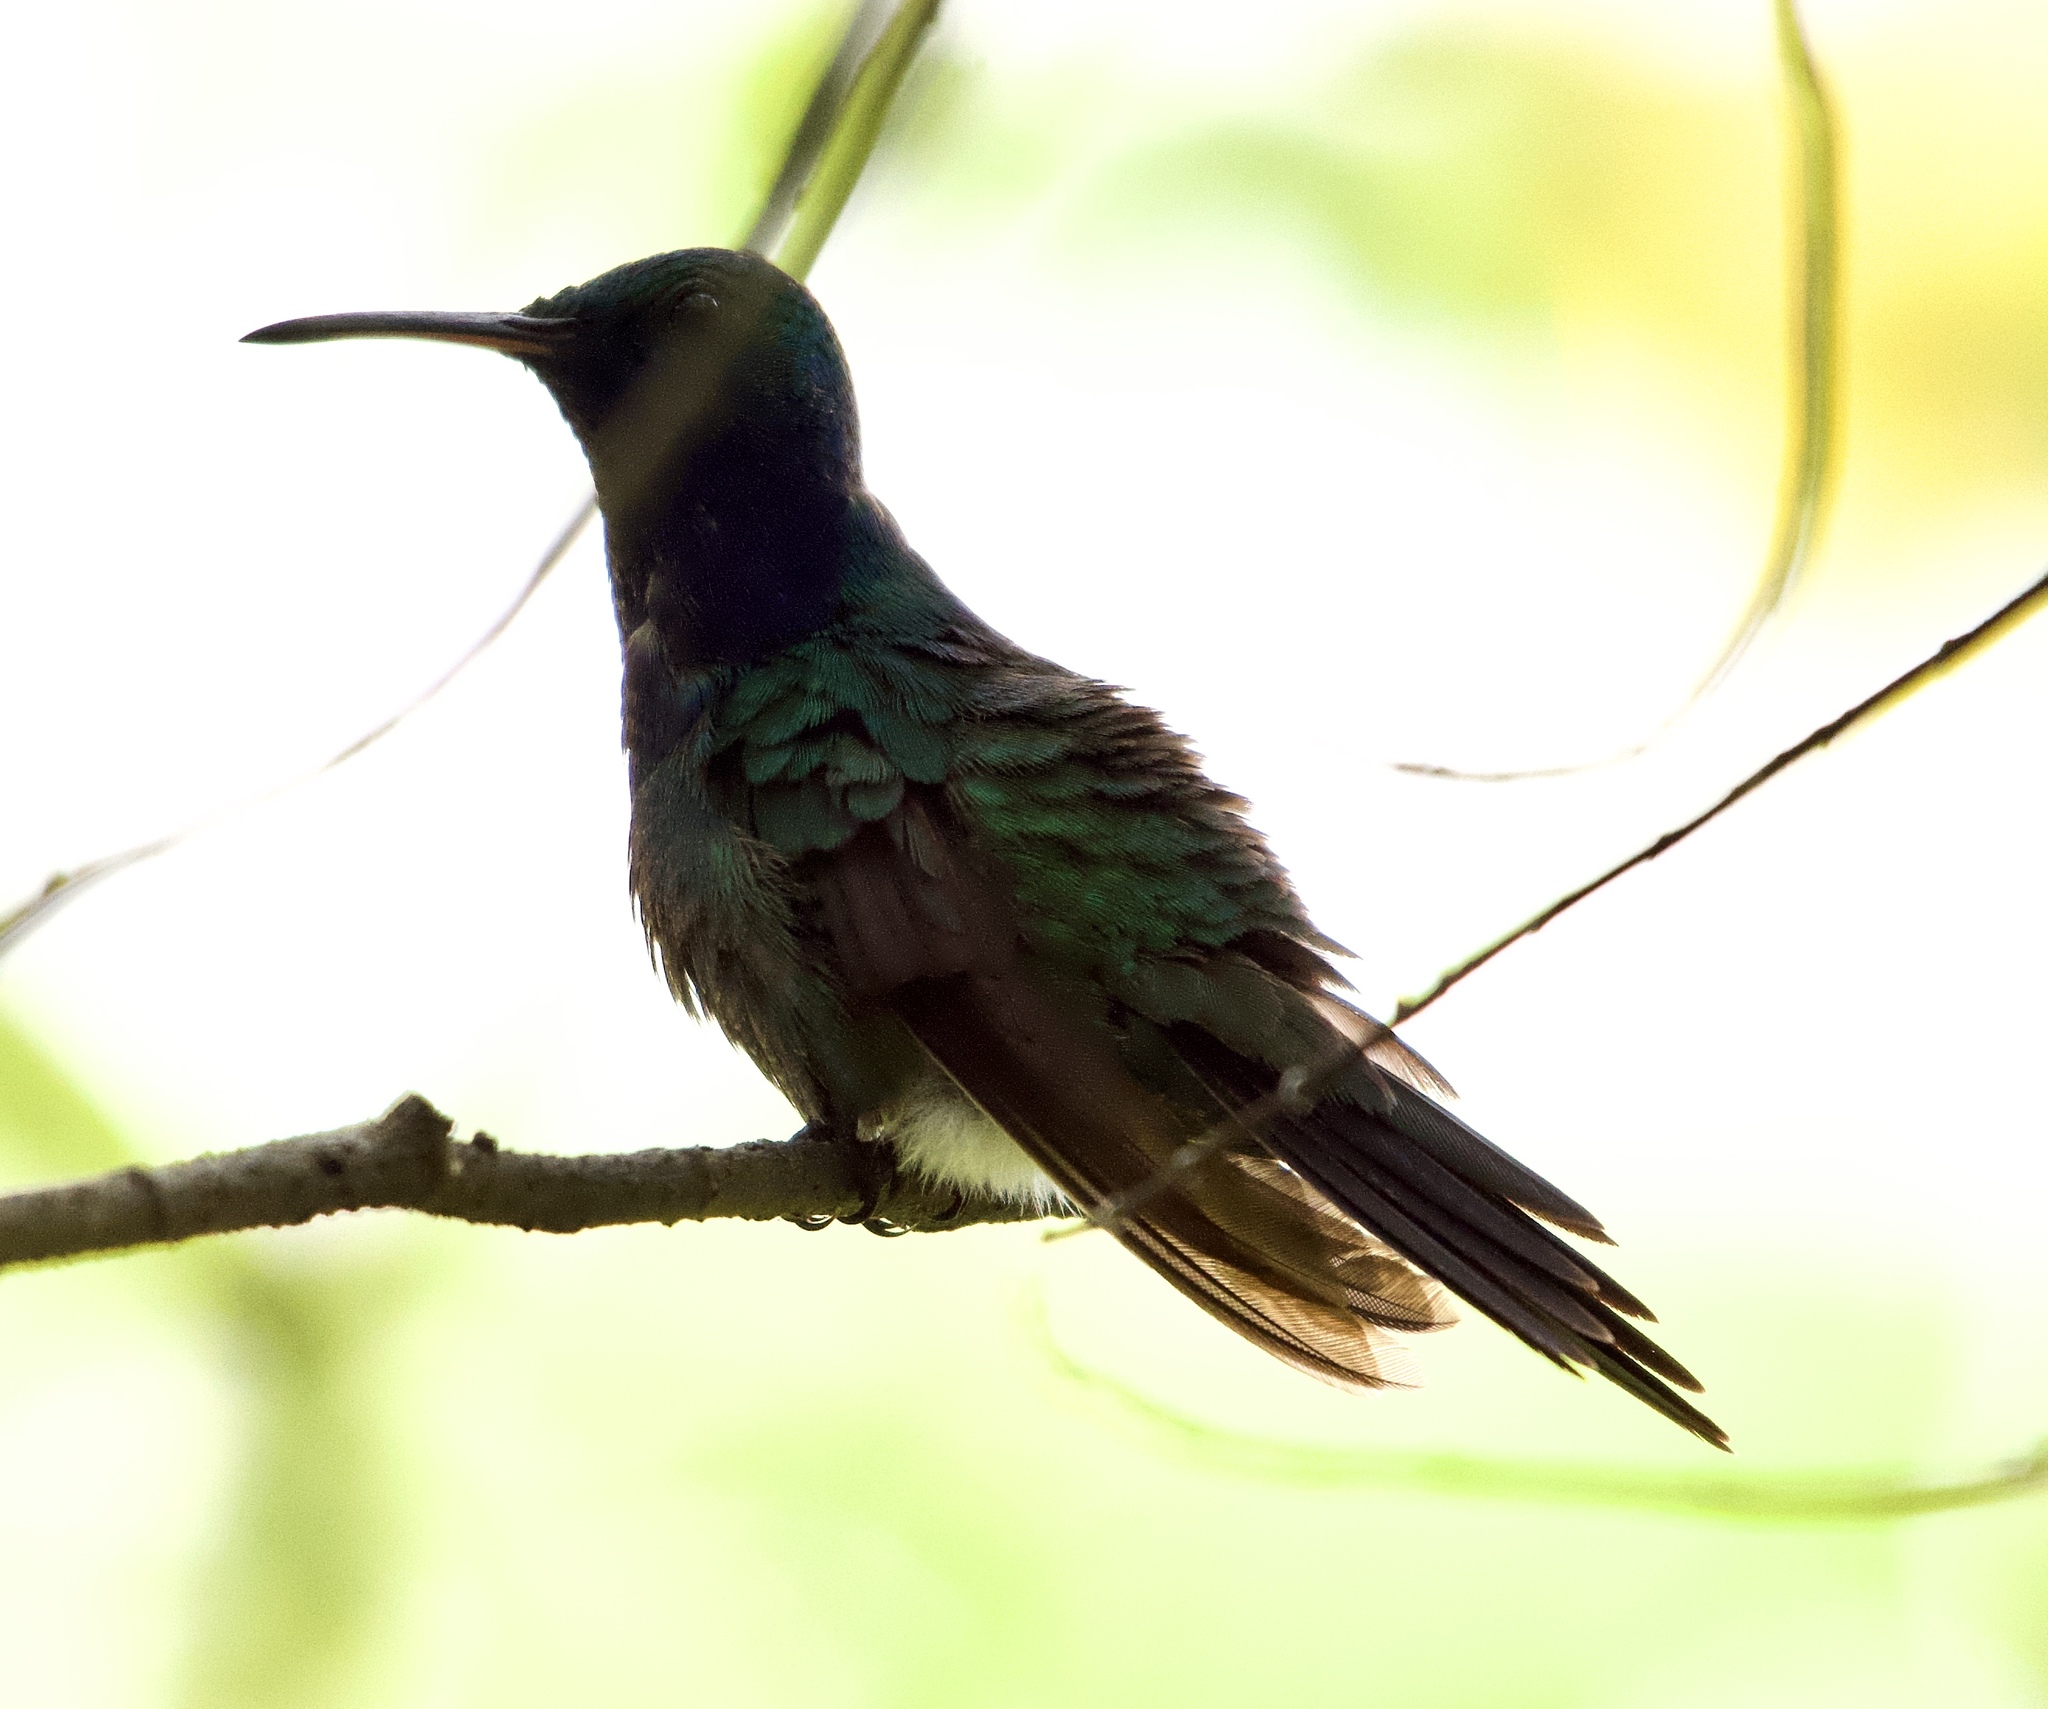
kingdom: Animalia
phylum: Chordata
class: Aves
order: Apodiformes
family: Trochilidae
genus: Chrysuronia
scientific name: Chrysuronia coeruleogularis
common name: Sapphire-throated hummingbird
